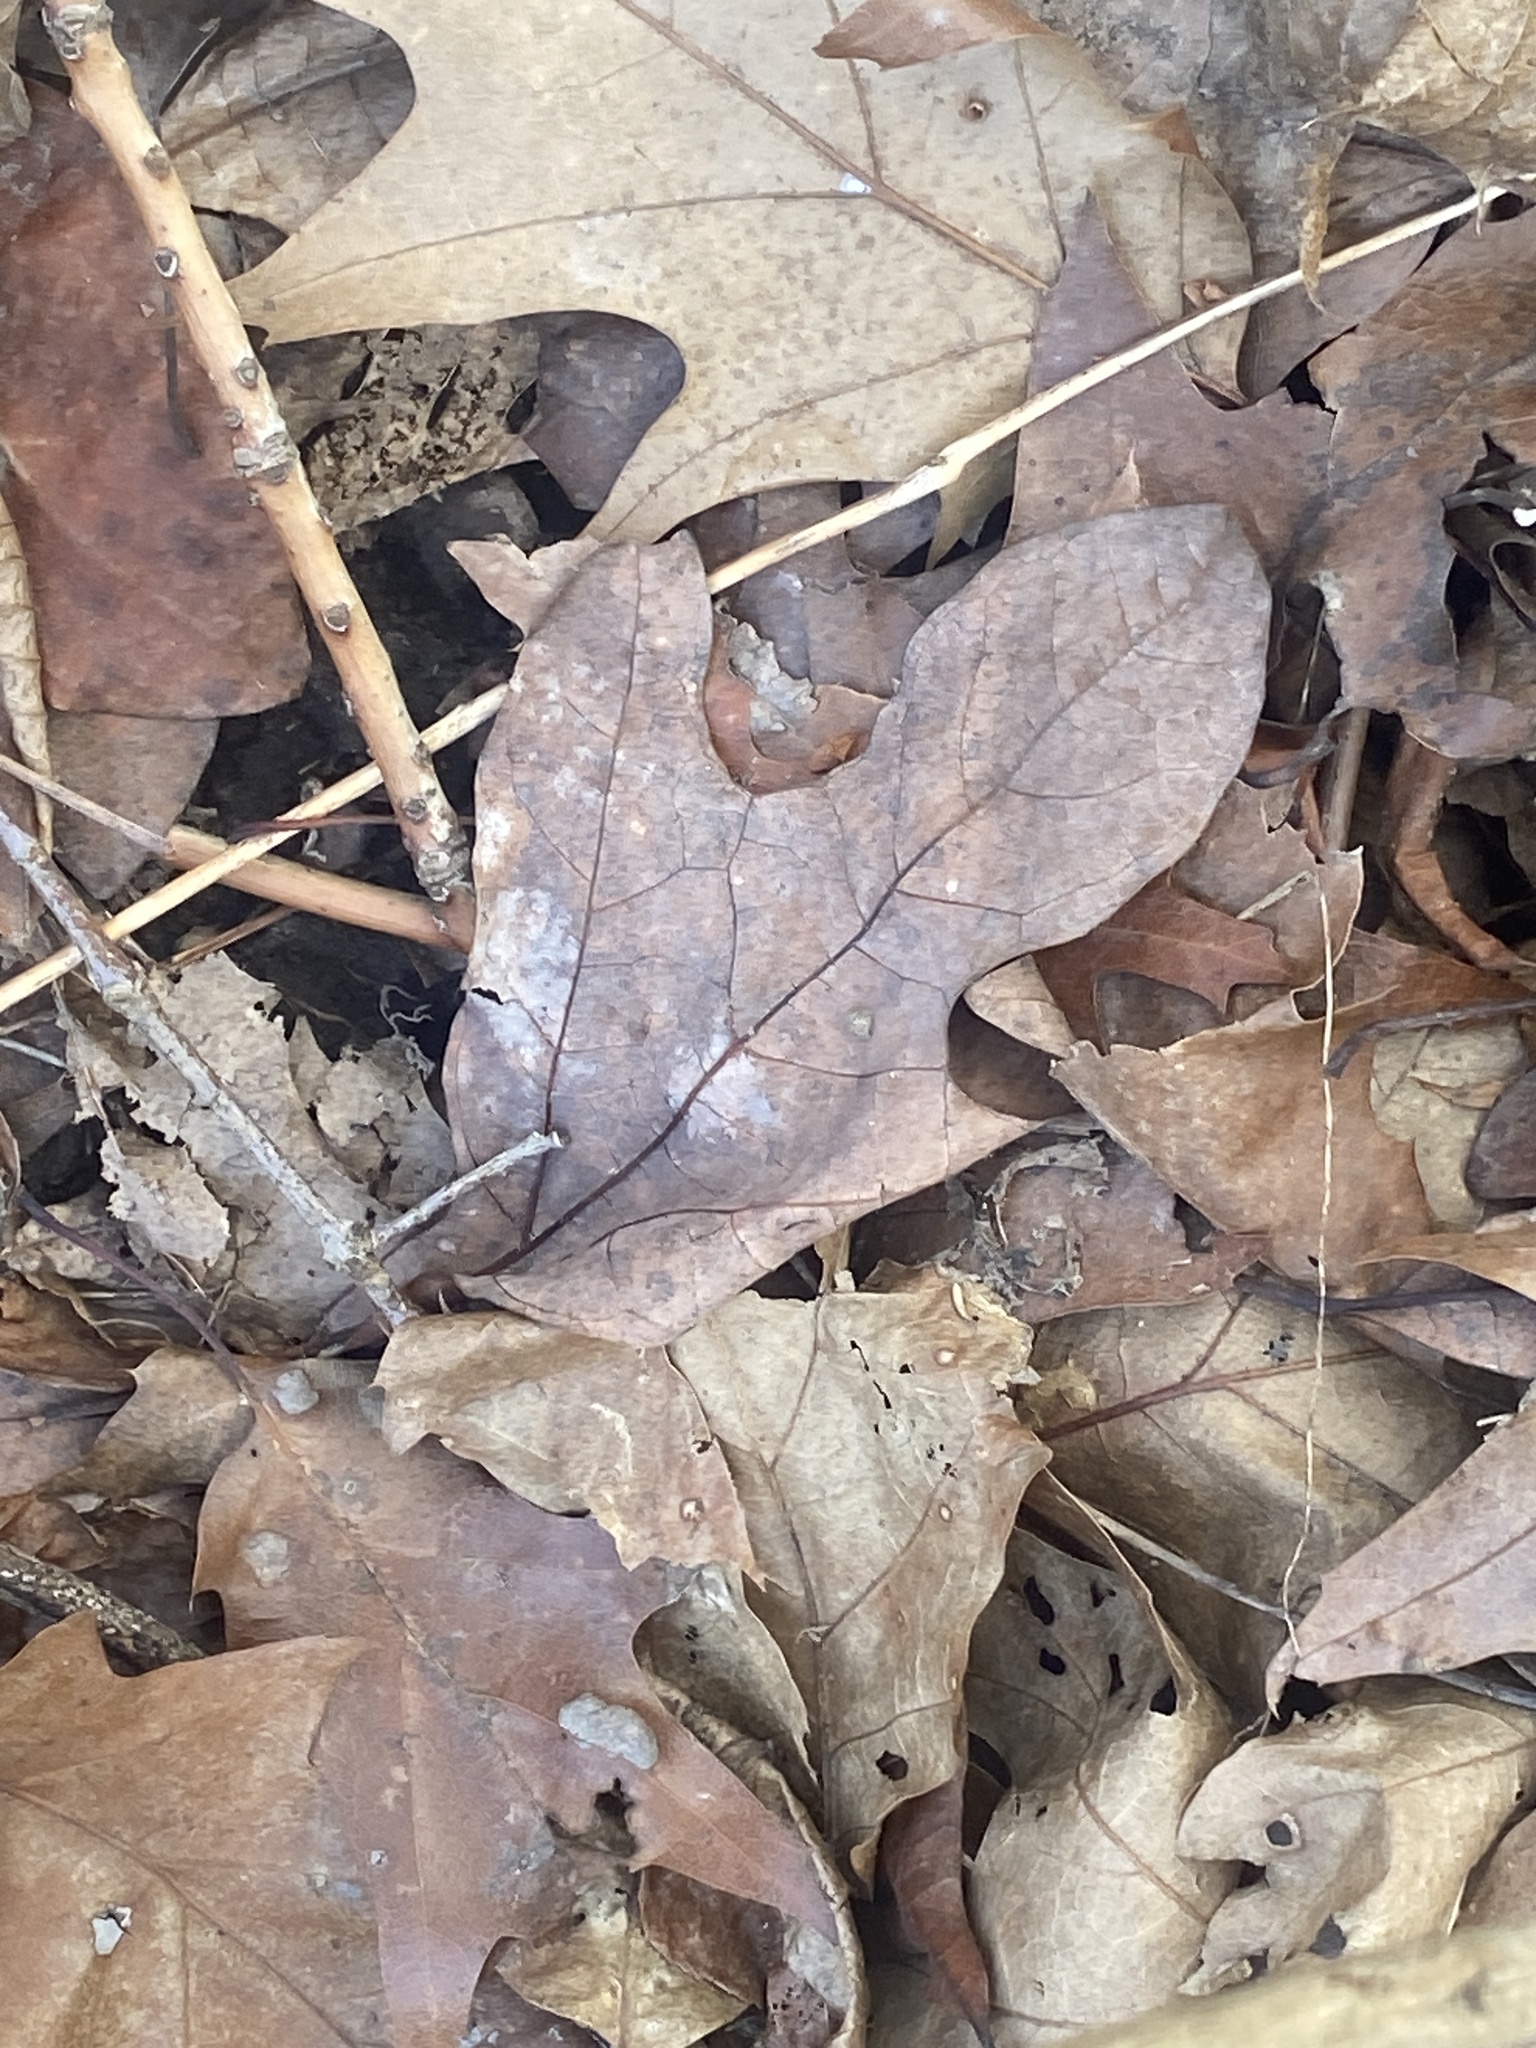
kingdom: Plantae
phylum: Tracheophyta
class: Magnoliopsida
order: Laurales
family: Lauraceae
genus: Sassafras
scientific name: Sassafras albidum
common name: Sassafras
